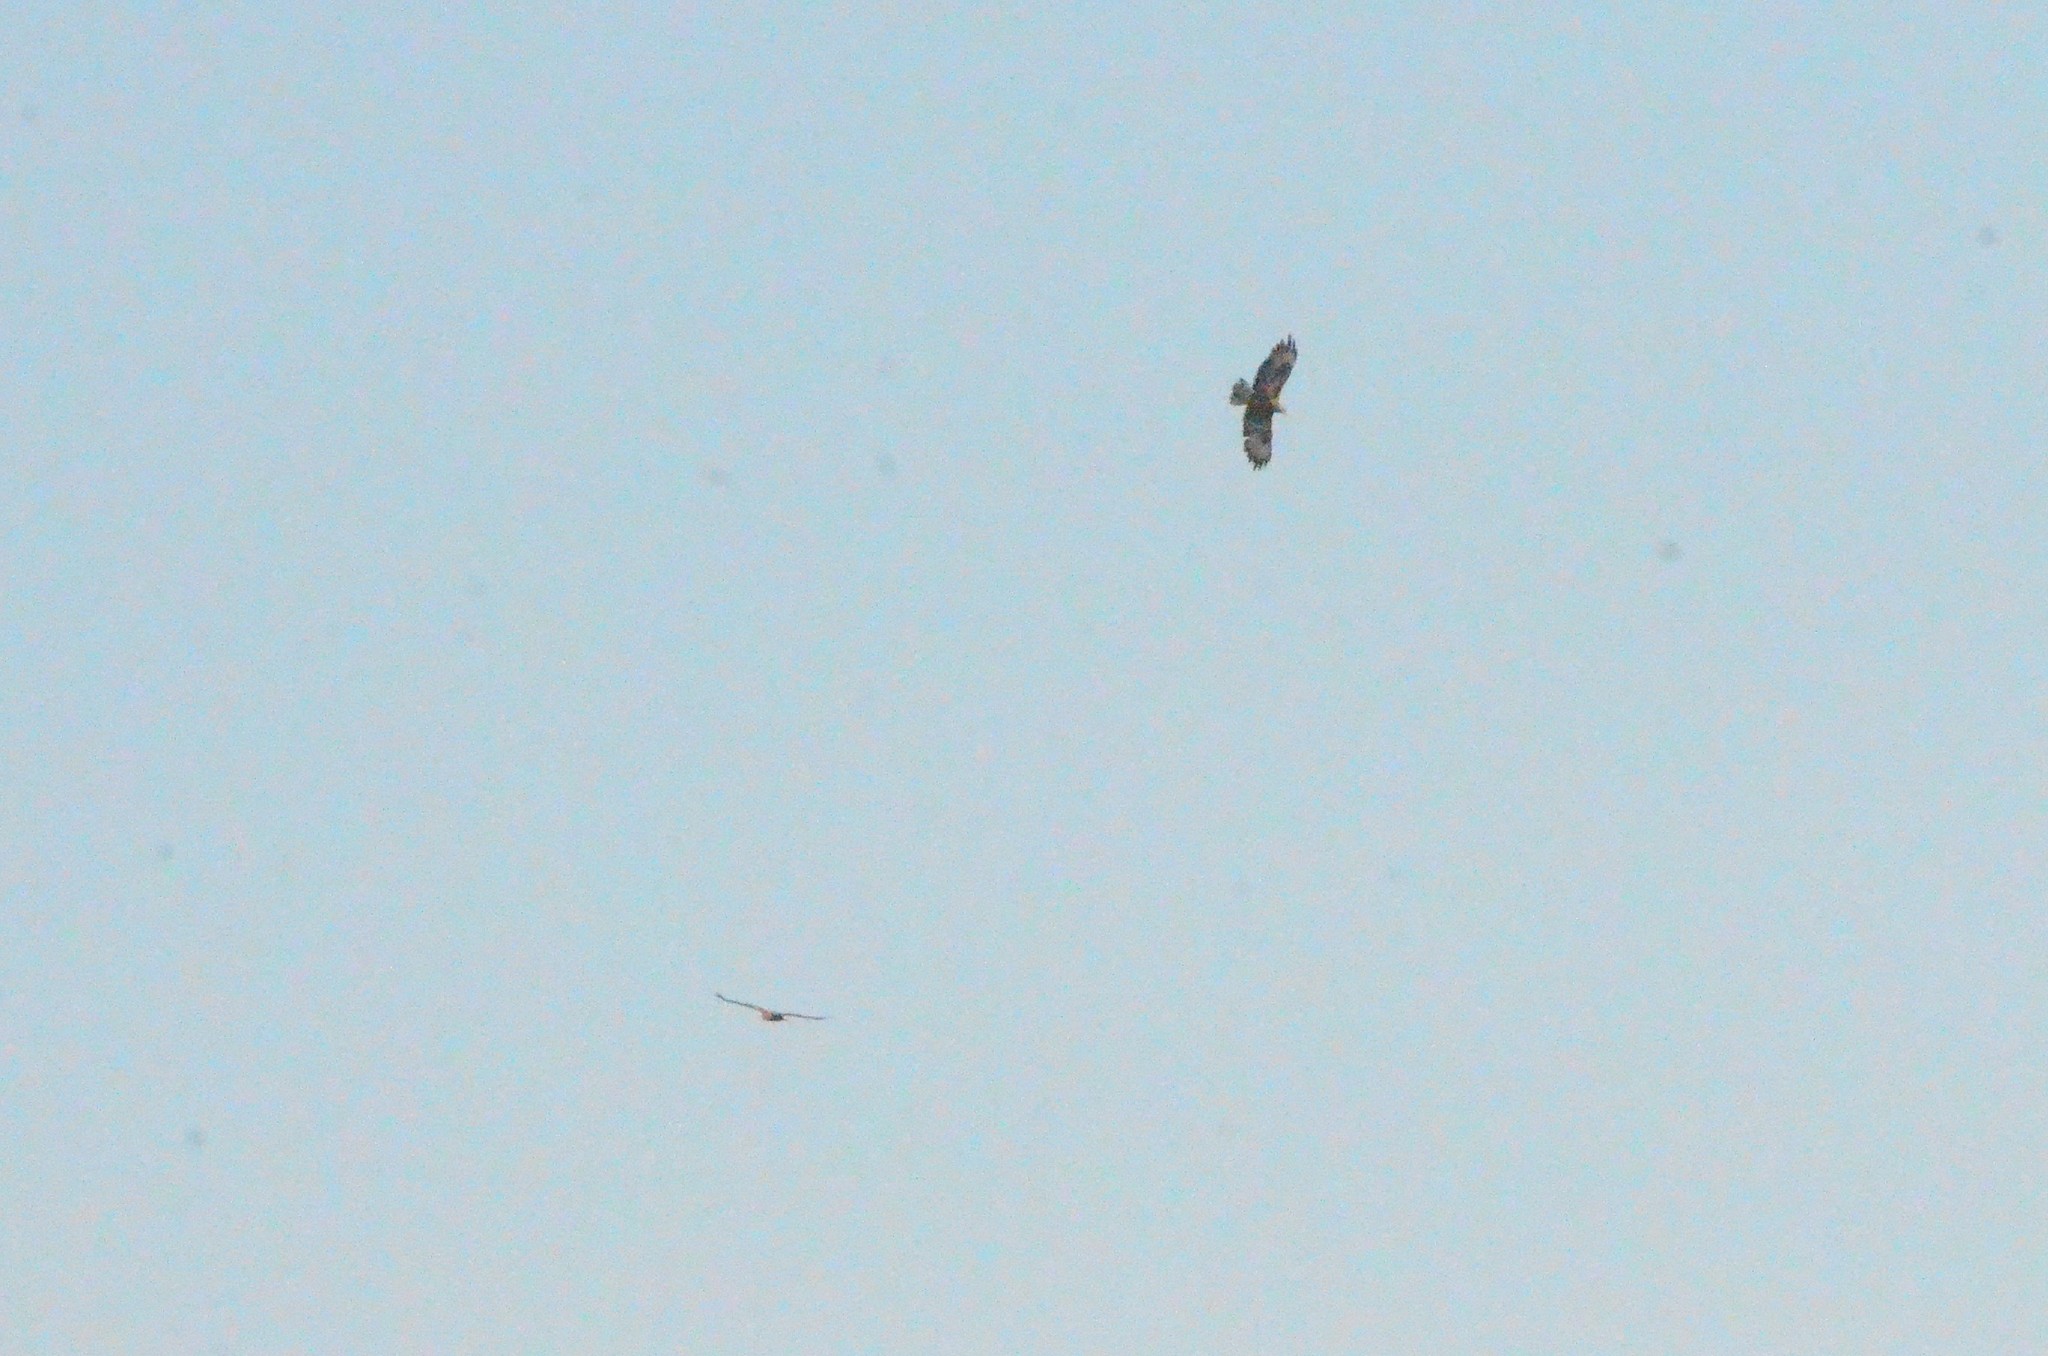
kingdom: Animalia
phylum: Chordata
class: Aves
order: Accipitriformes
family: Accipitridae
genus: Buteo
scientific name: Buteo buteo
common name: Common buzzard
